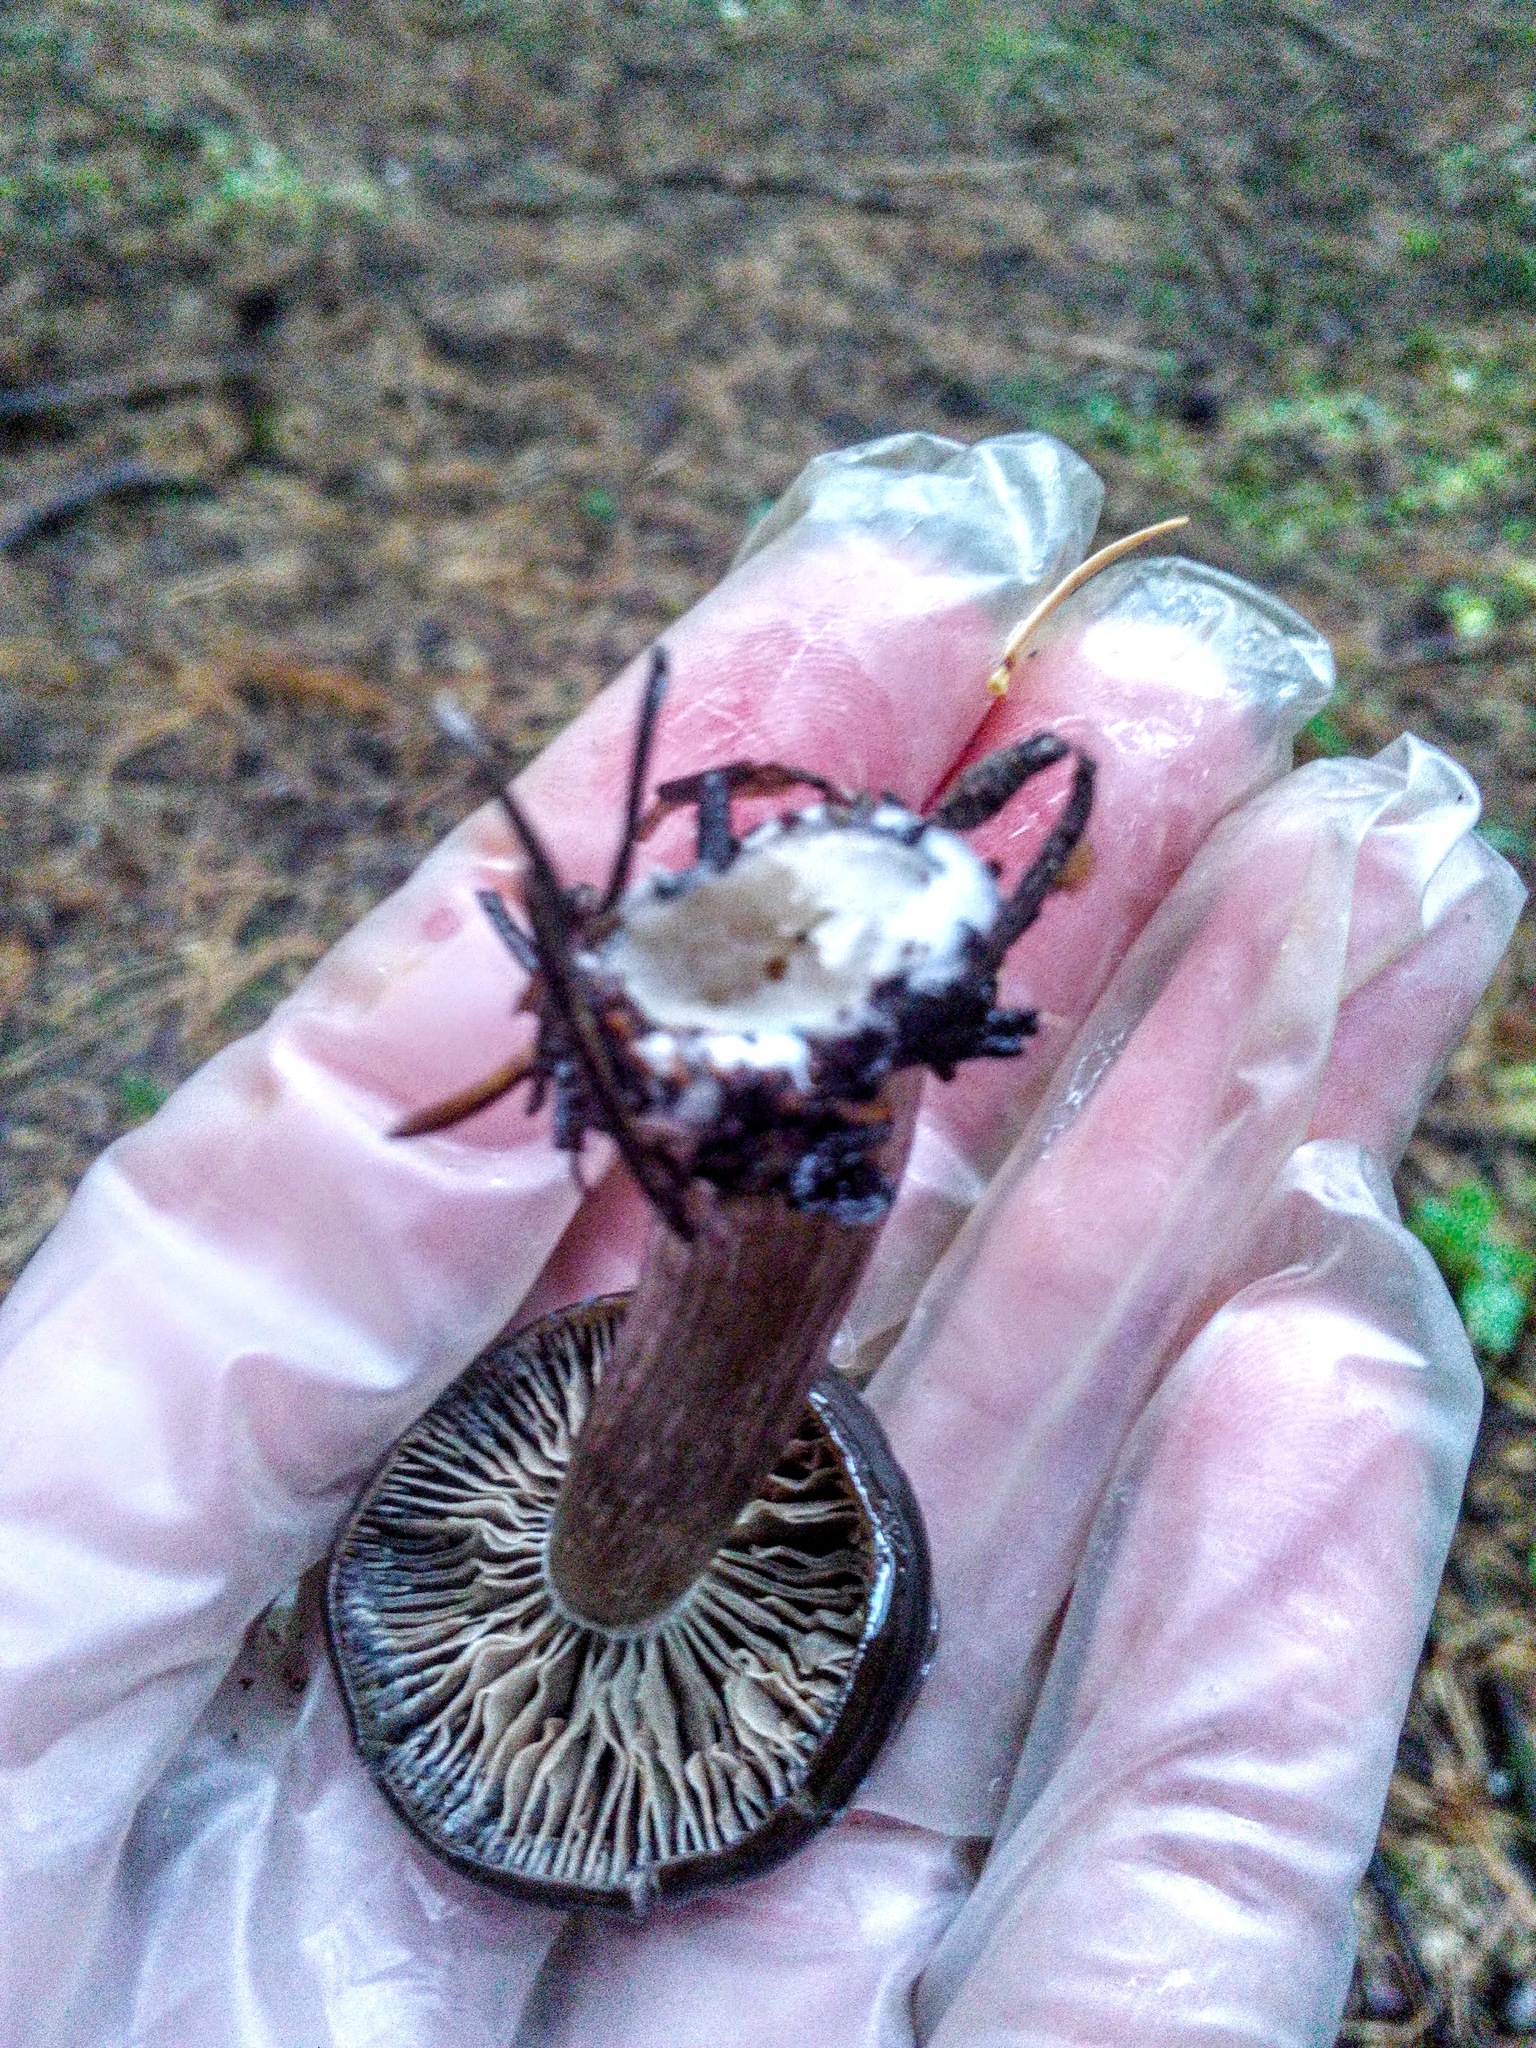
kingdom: Fungi
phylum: Basidiomycota
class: Agaricomycetes
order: Russulales
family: Russulaceae
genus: Lactarius
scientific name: Lactarius lignyotus
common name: Velvet milkcap
